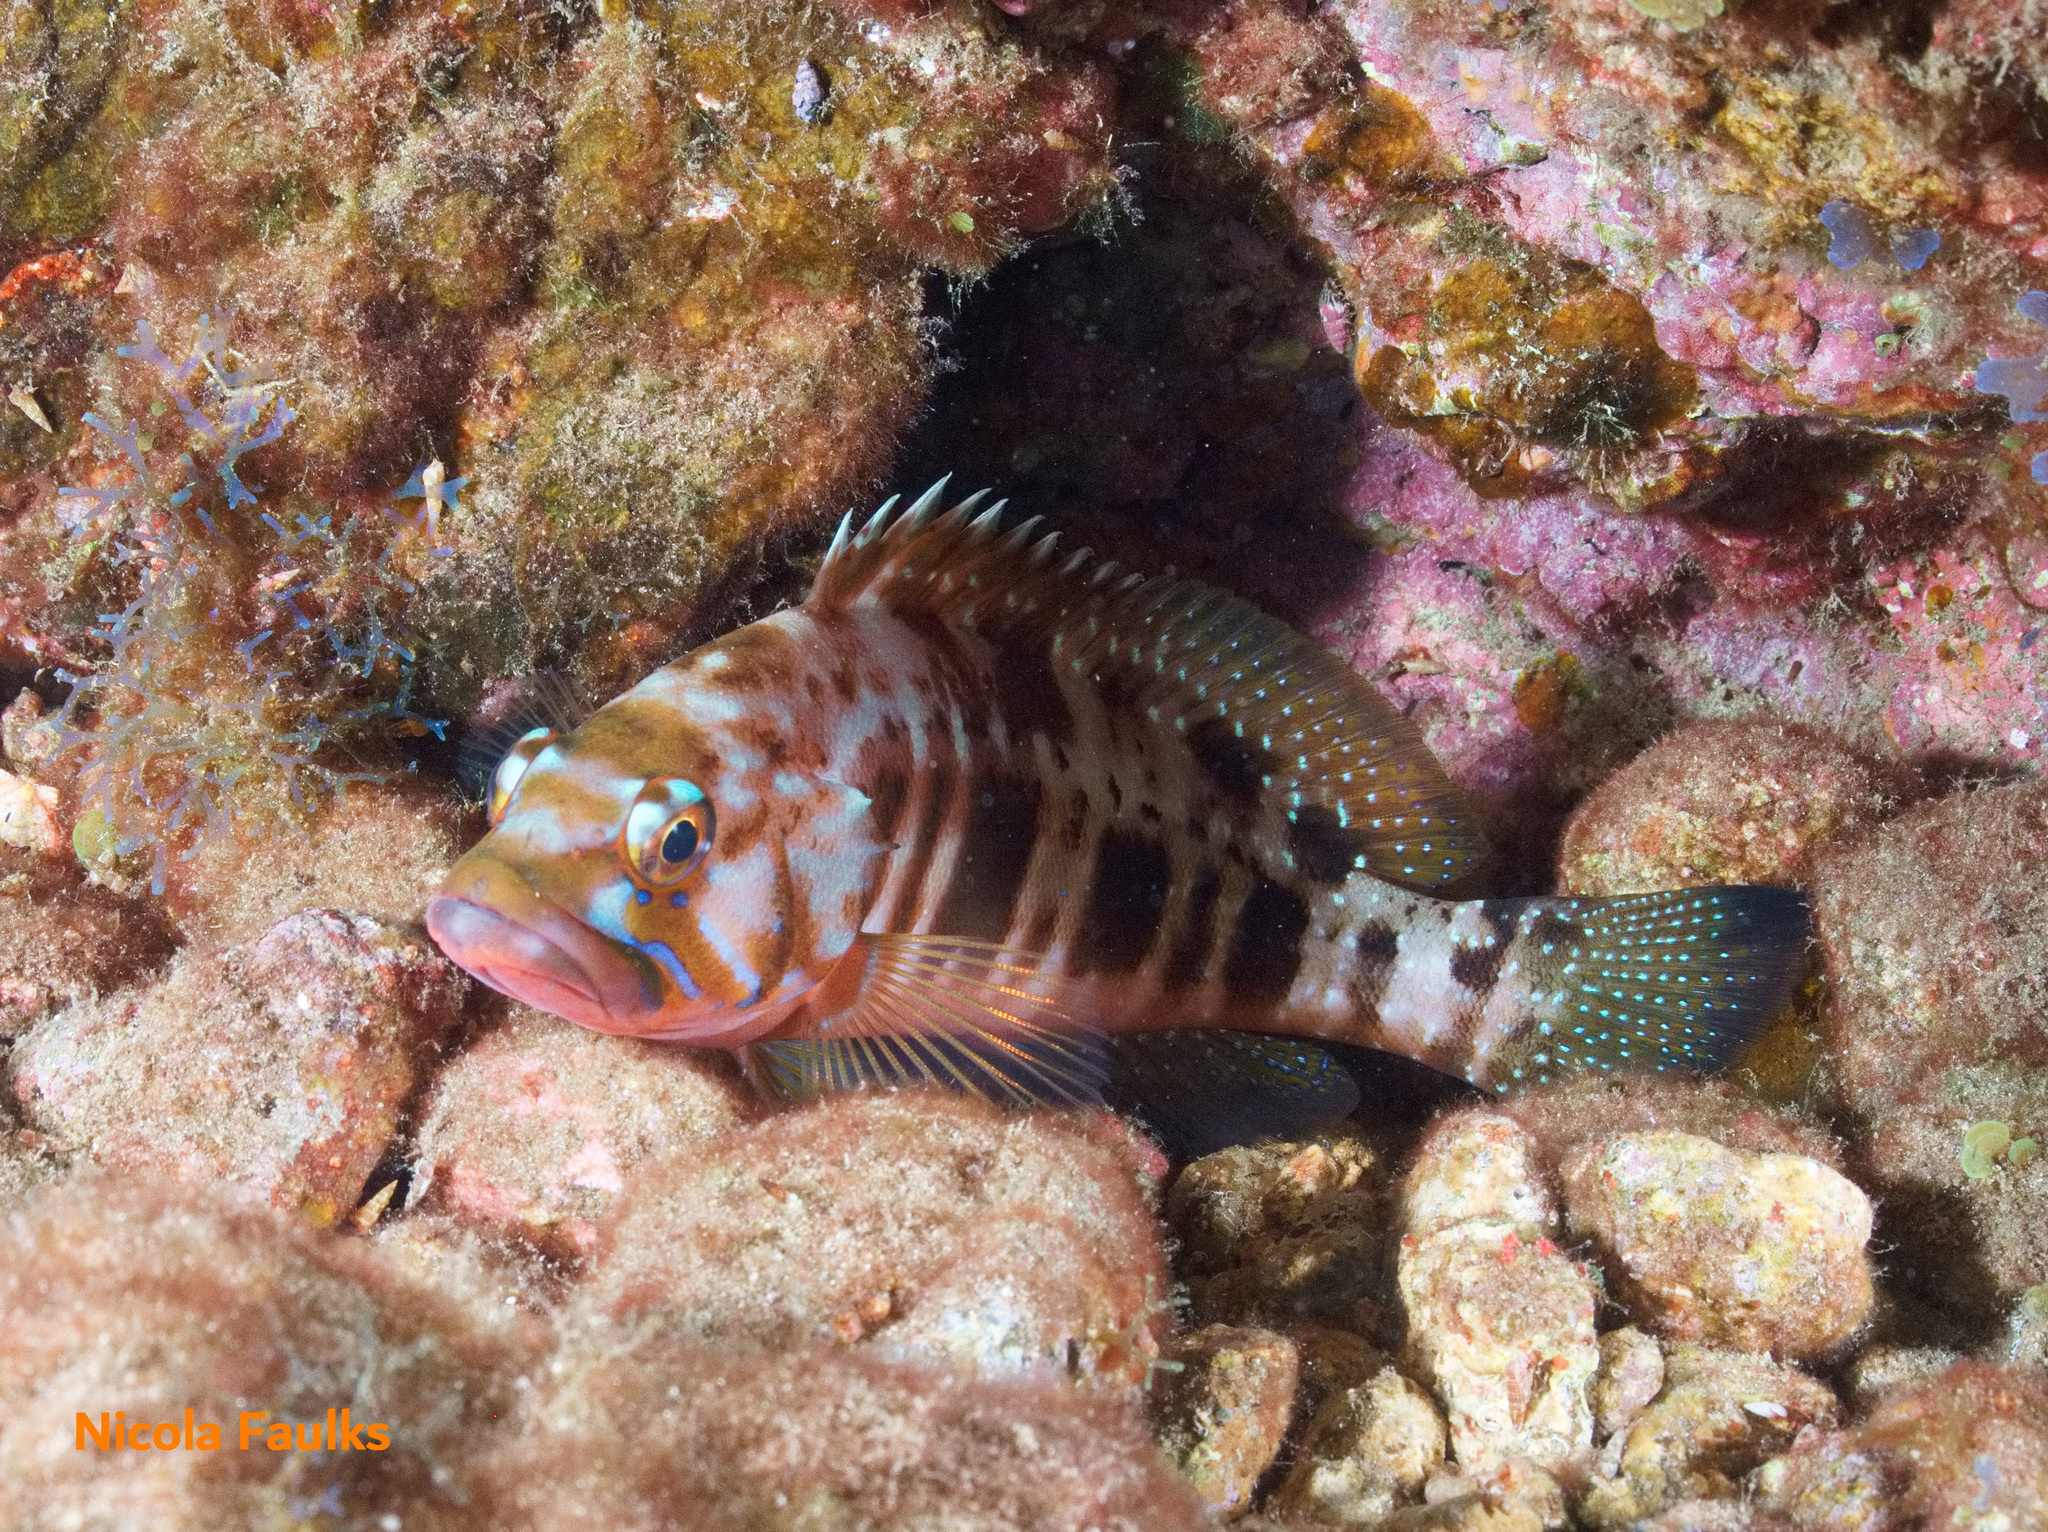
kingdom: Animalia
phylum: Chordata
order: Perciformes
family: Serranidae
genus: Serranus
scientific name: Serranus atricauda
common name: Blacktail comber
